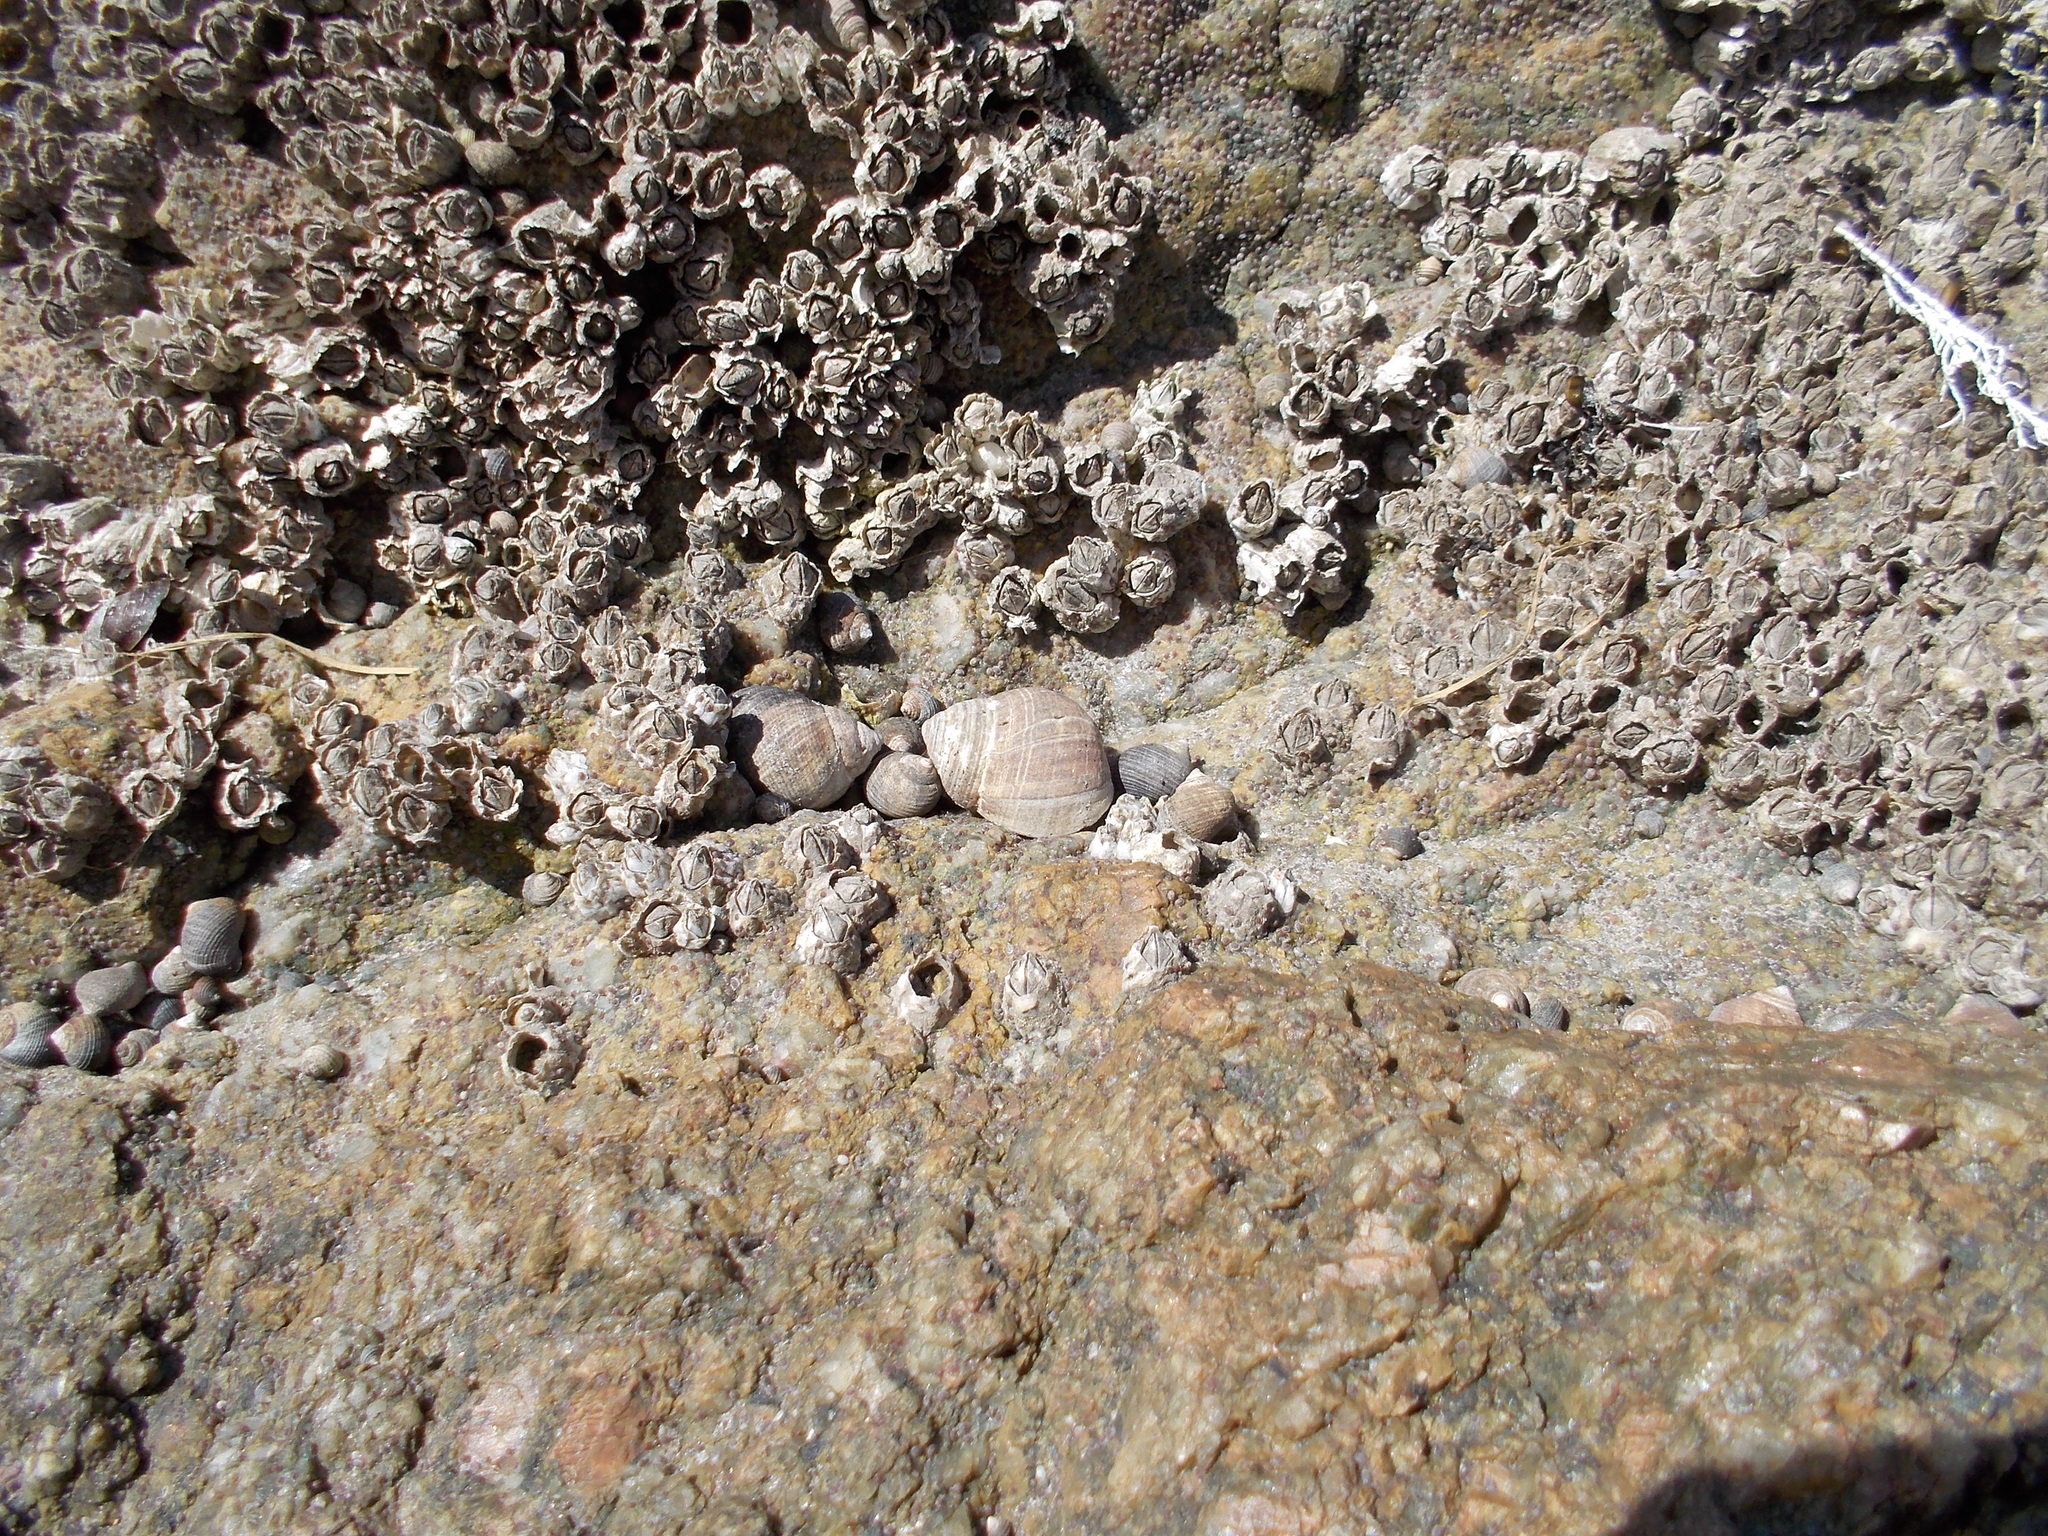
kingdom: Animalia
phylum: Arthropoda
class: Maxillopoda
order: Sessilia
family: Archaeobalanidae
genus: Semibalanus
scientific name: Semibalanus balanoides
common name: Acorn barnacle
